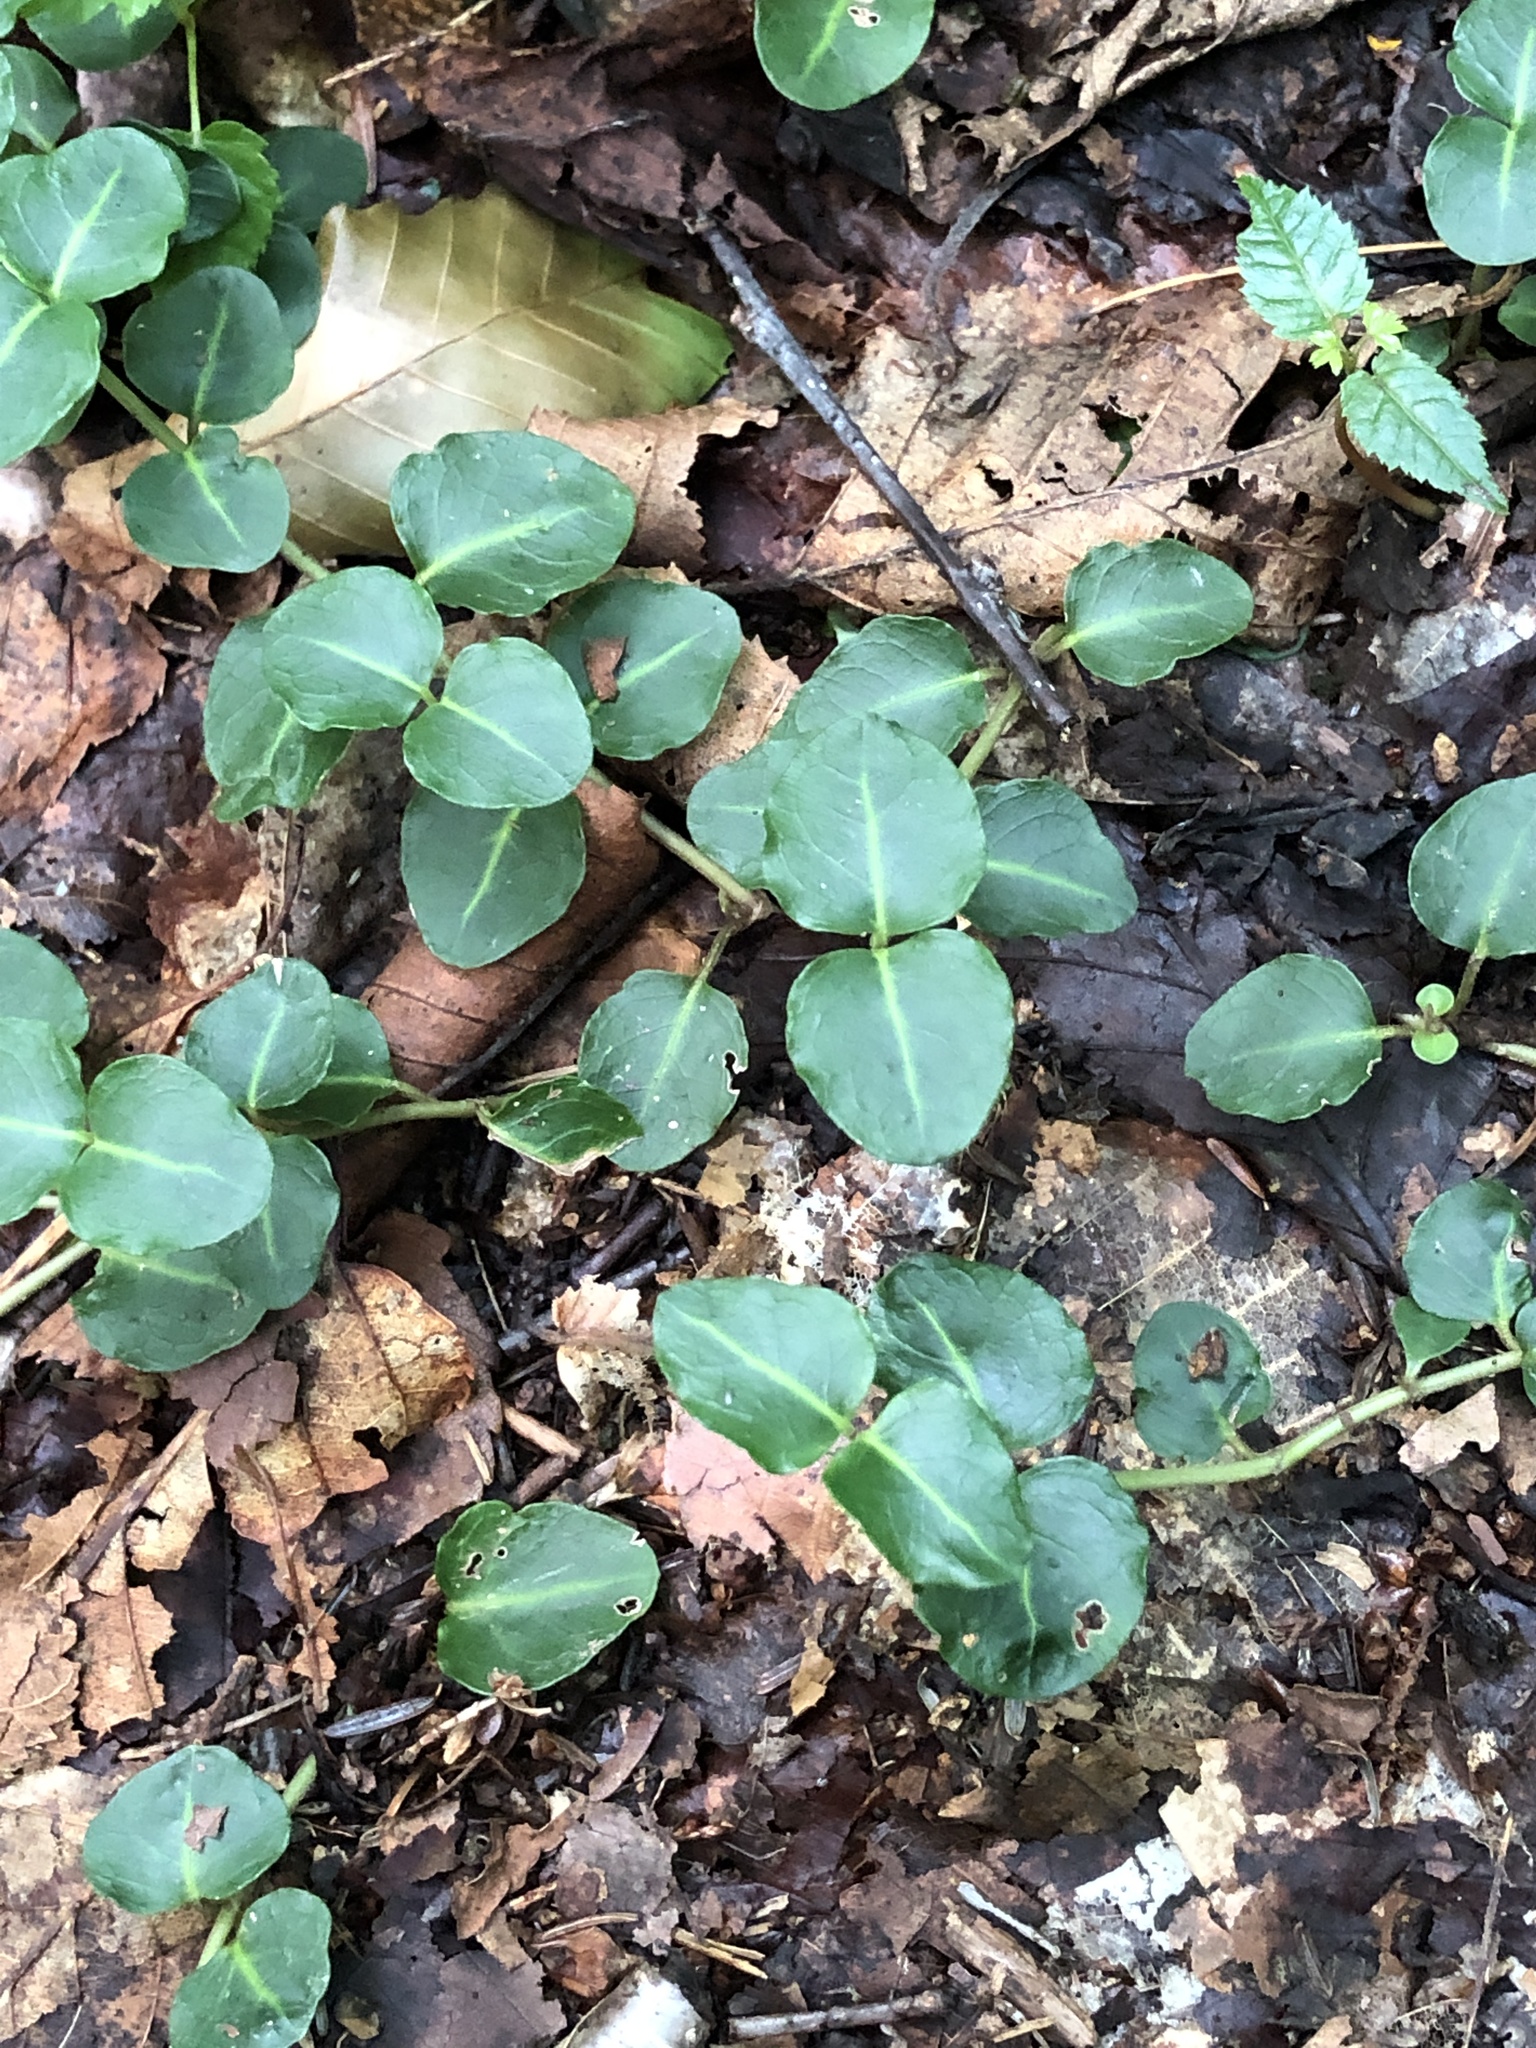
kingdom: Plantae
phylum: Tracheophyta
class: Magnoliopsida
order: Gentianales
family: Rubiaceae
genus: Mitchella
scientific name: Mitchella repens
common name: Partridge-berry
